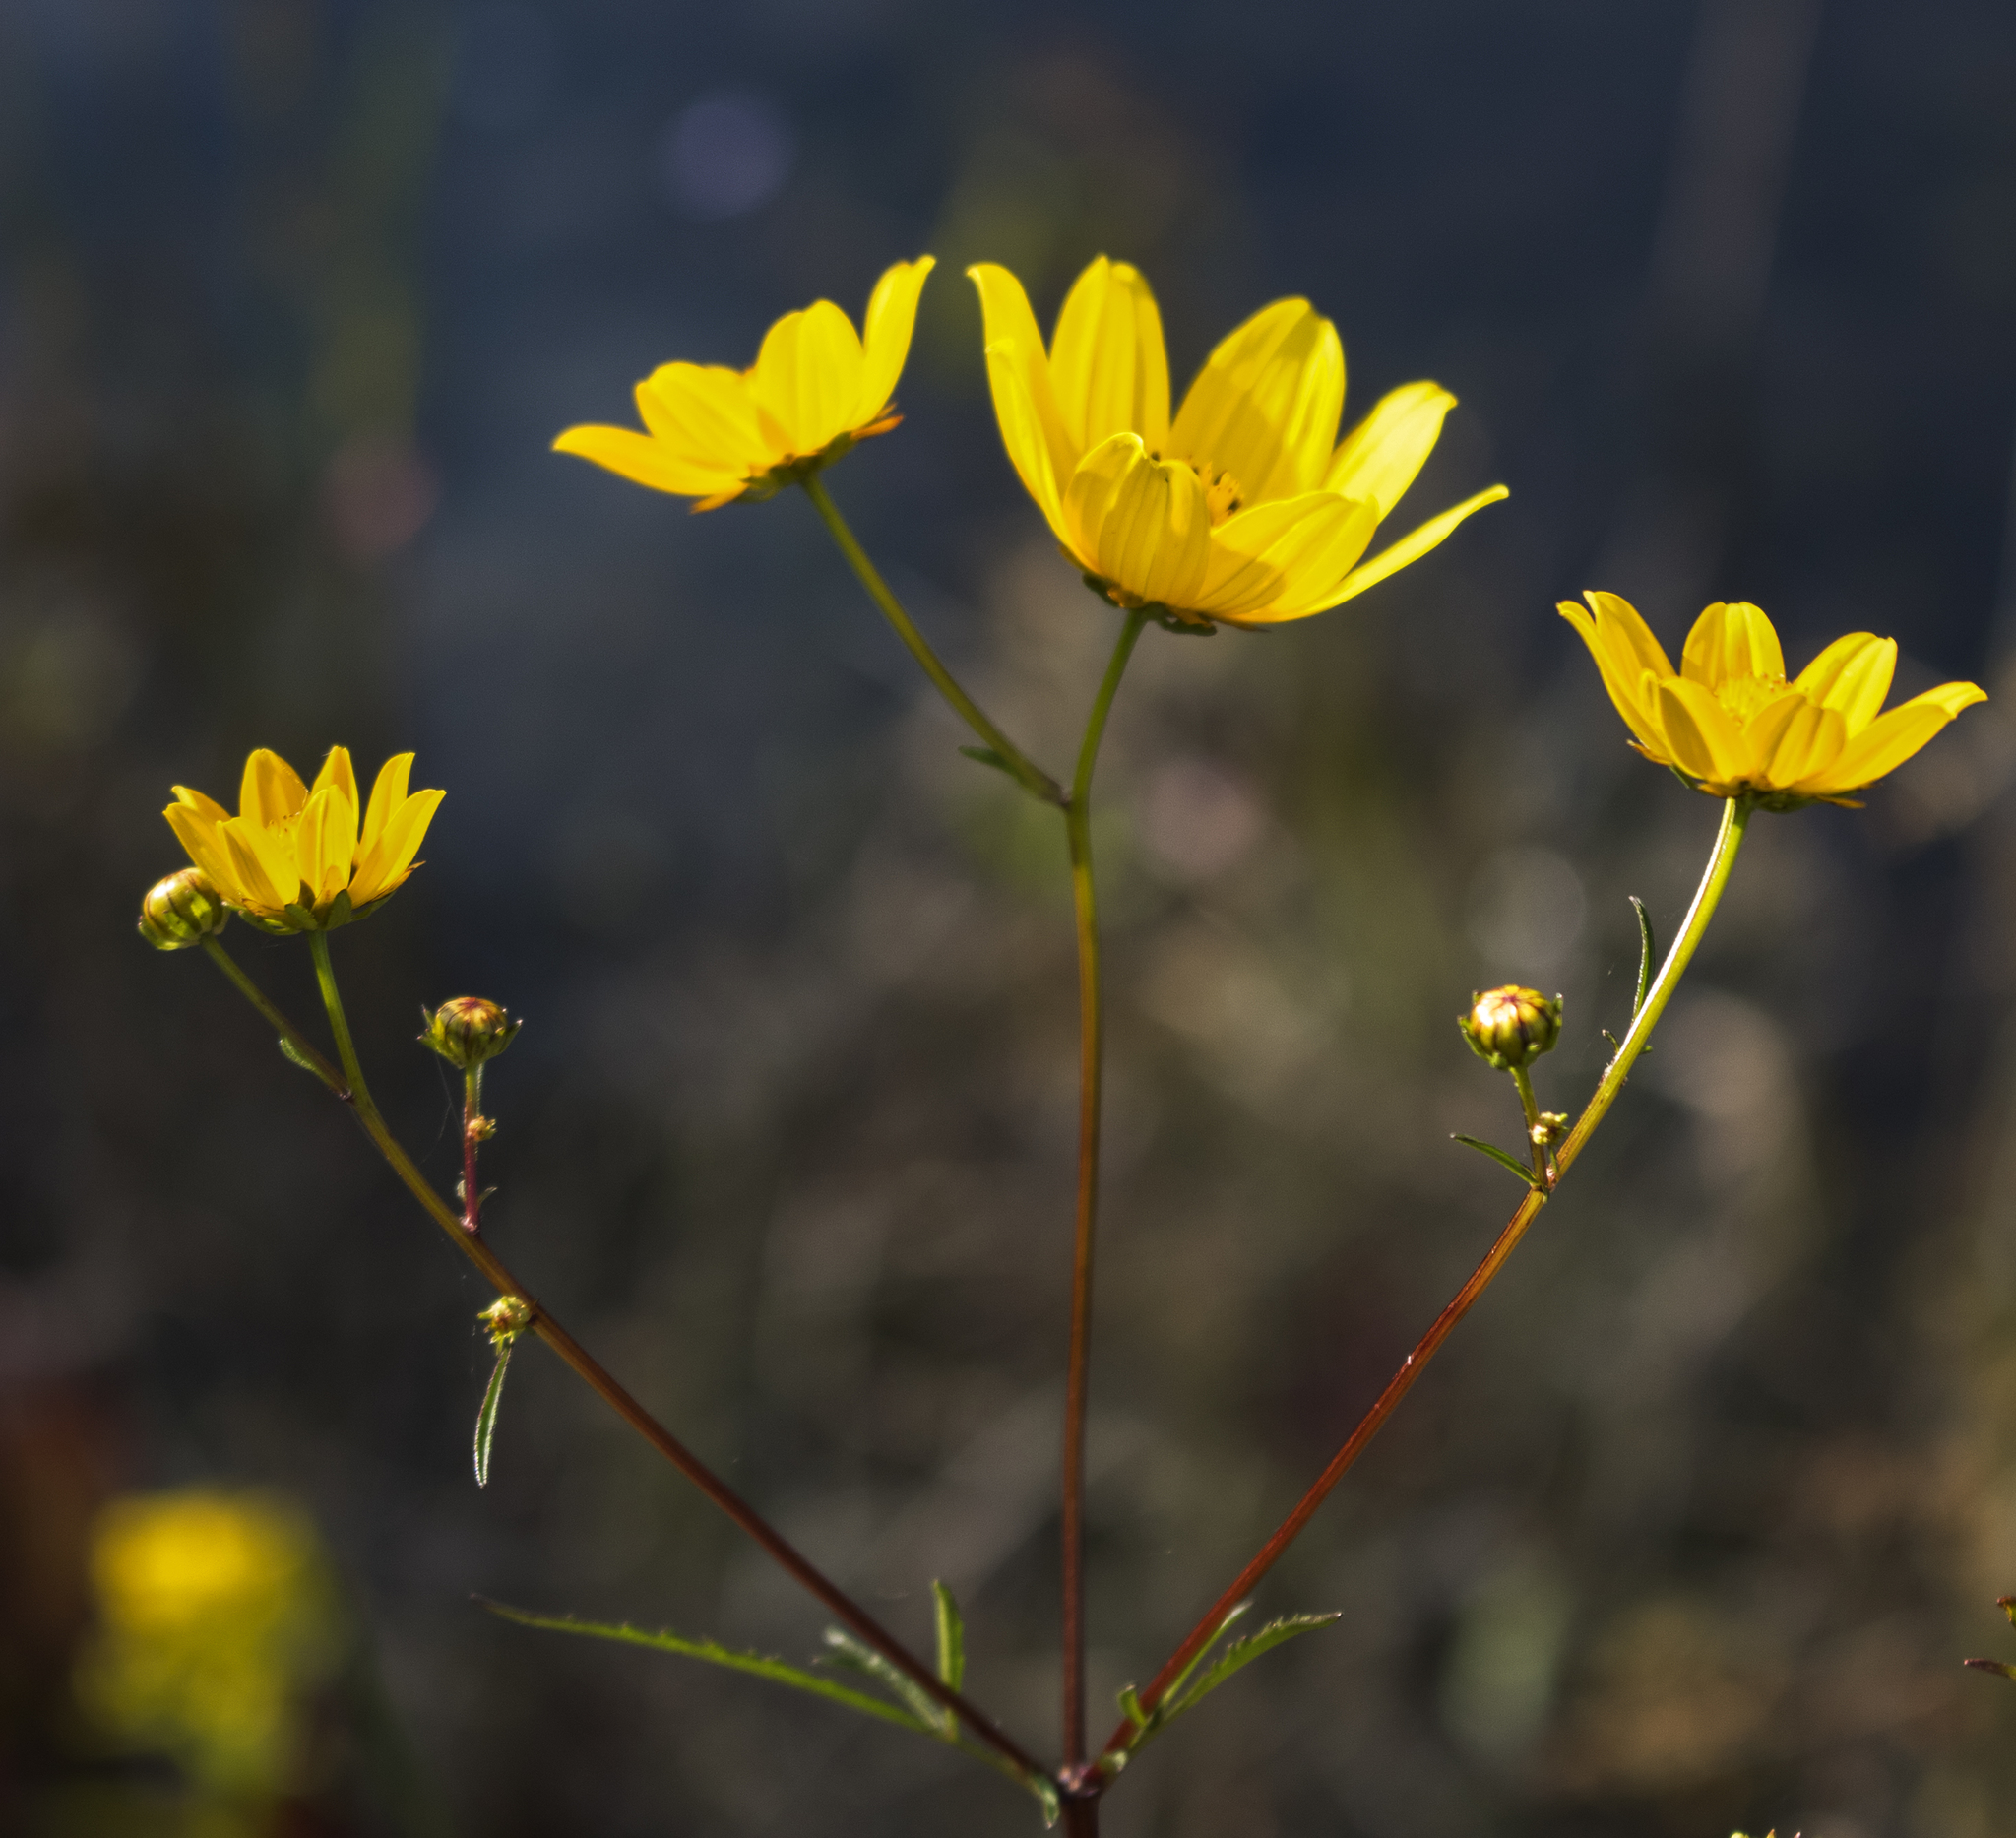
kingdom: Plantae
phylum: Tracheophyta
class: Magnoliopsida
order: Asterales
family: Asteraceae
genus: Bidens
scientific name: Bidens trichosperma
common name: Crowned beggarticks
